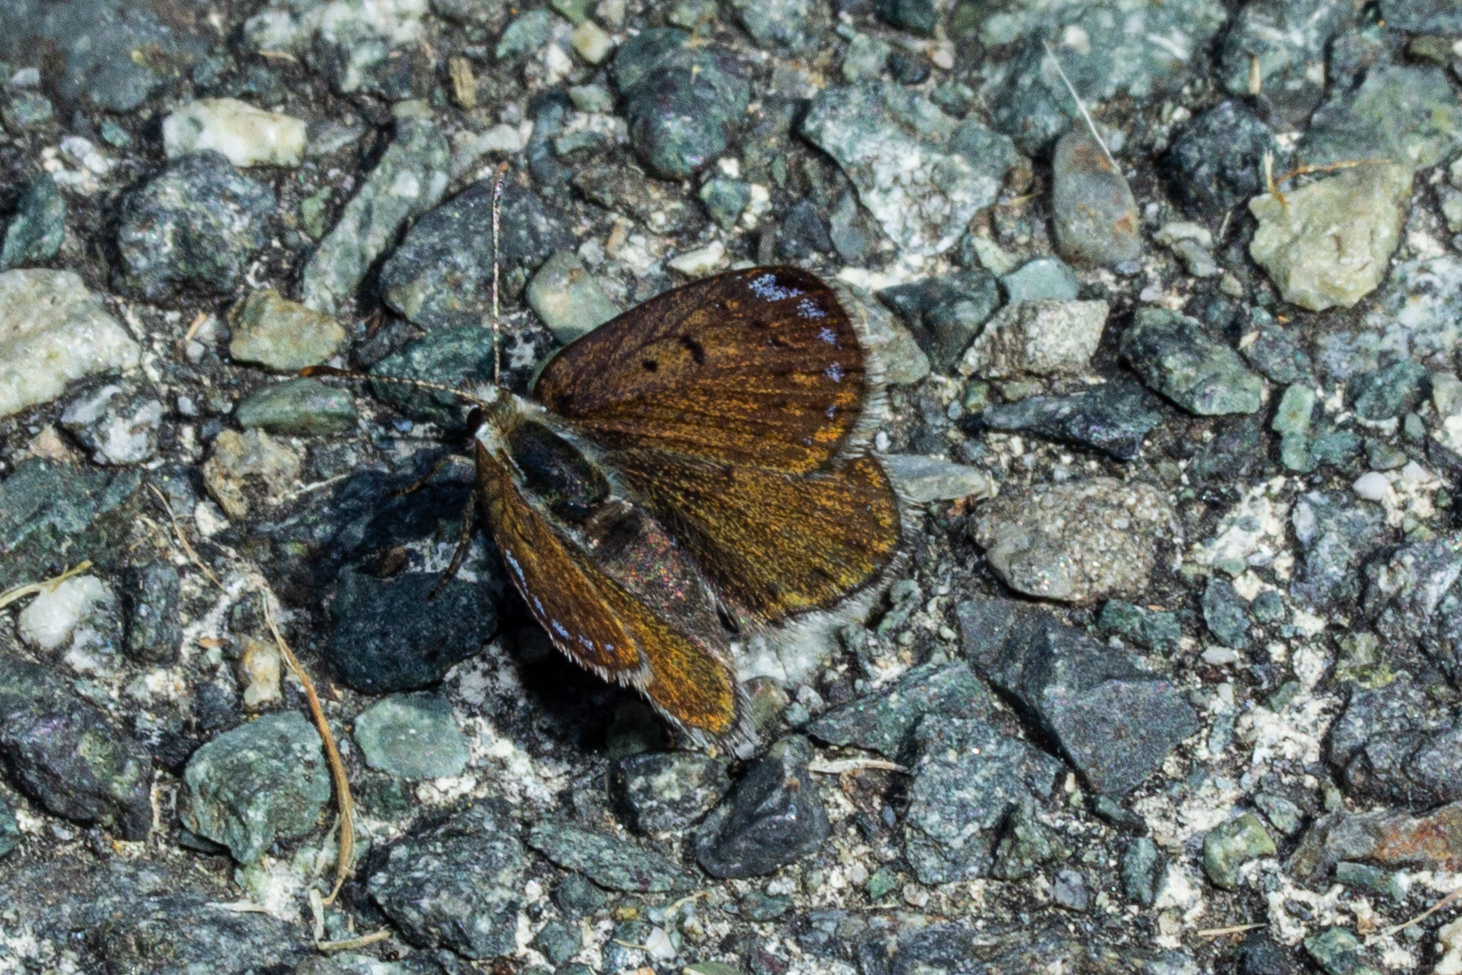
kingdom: Animalia
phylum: Arthropoda
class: Insecta
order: Lepidoptera
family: Lycaenidae
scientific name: Lycaenidae
